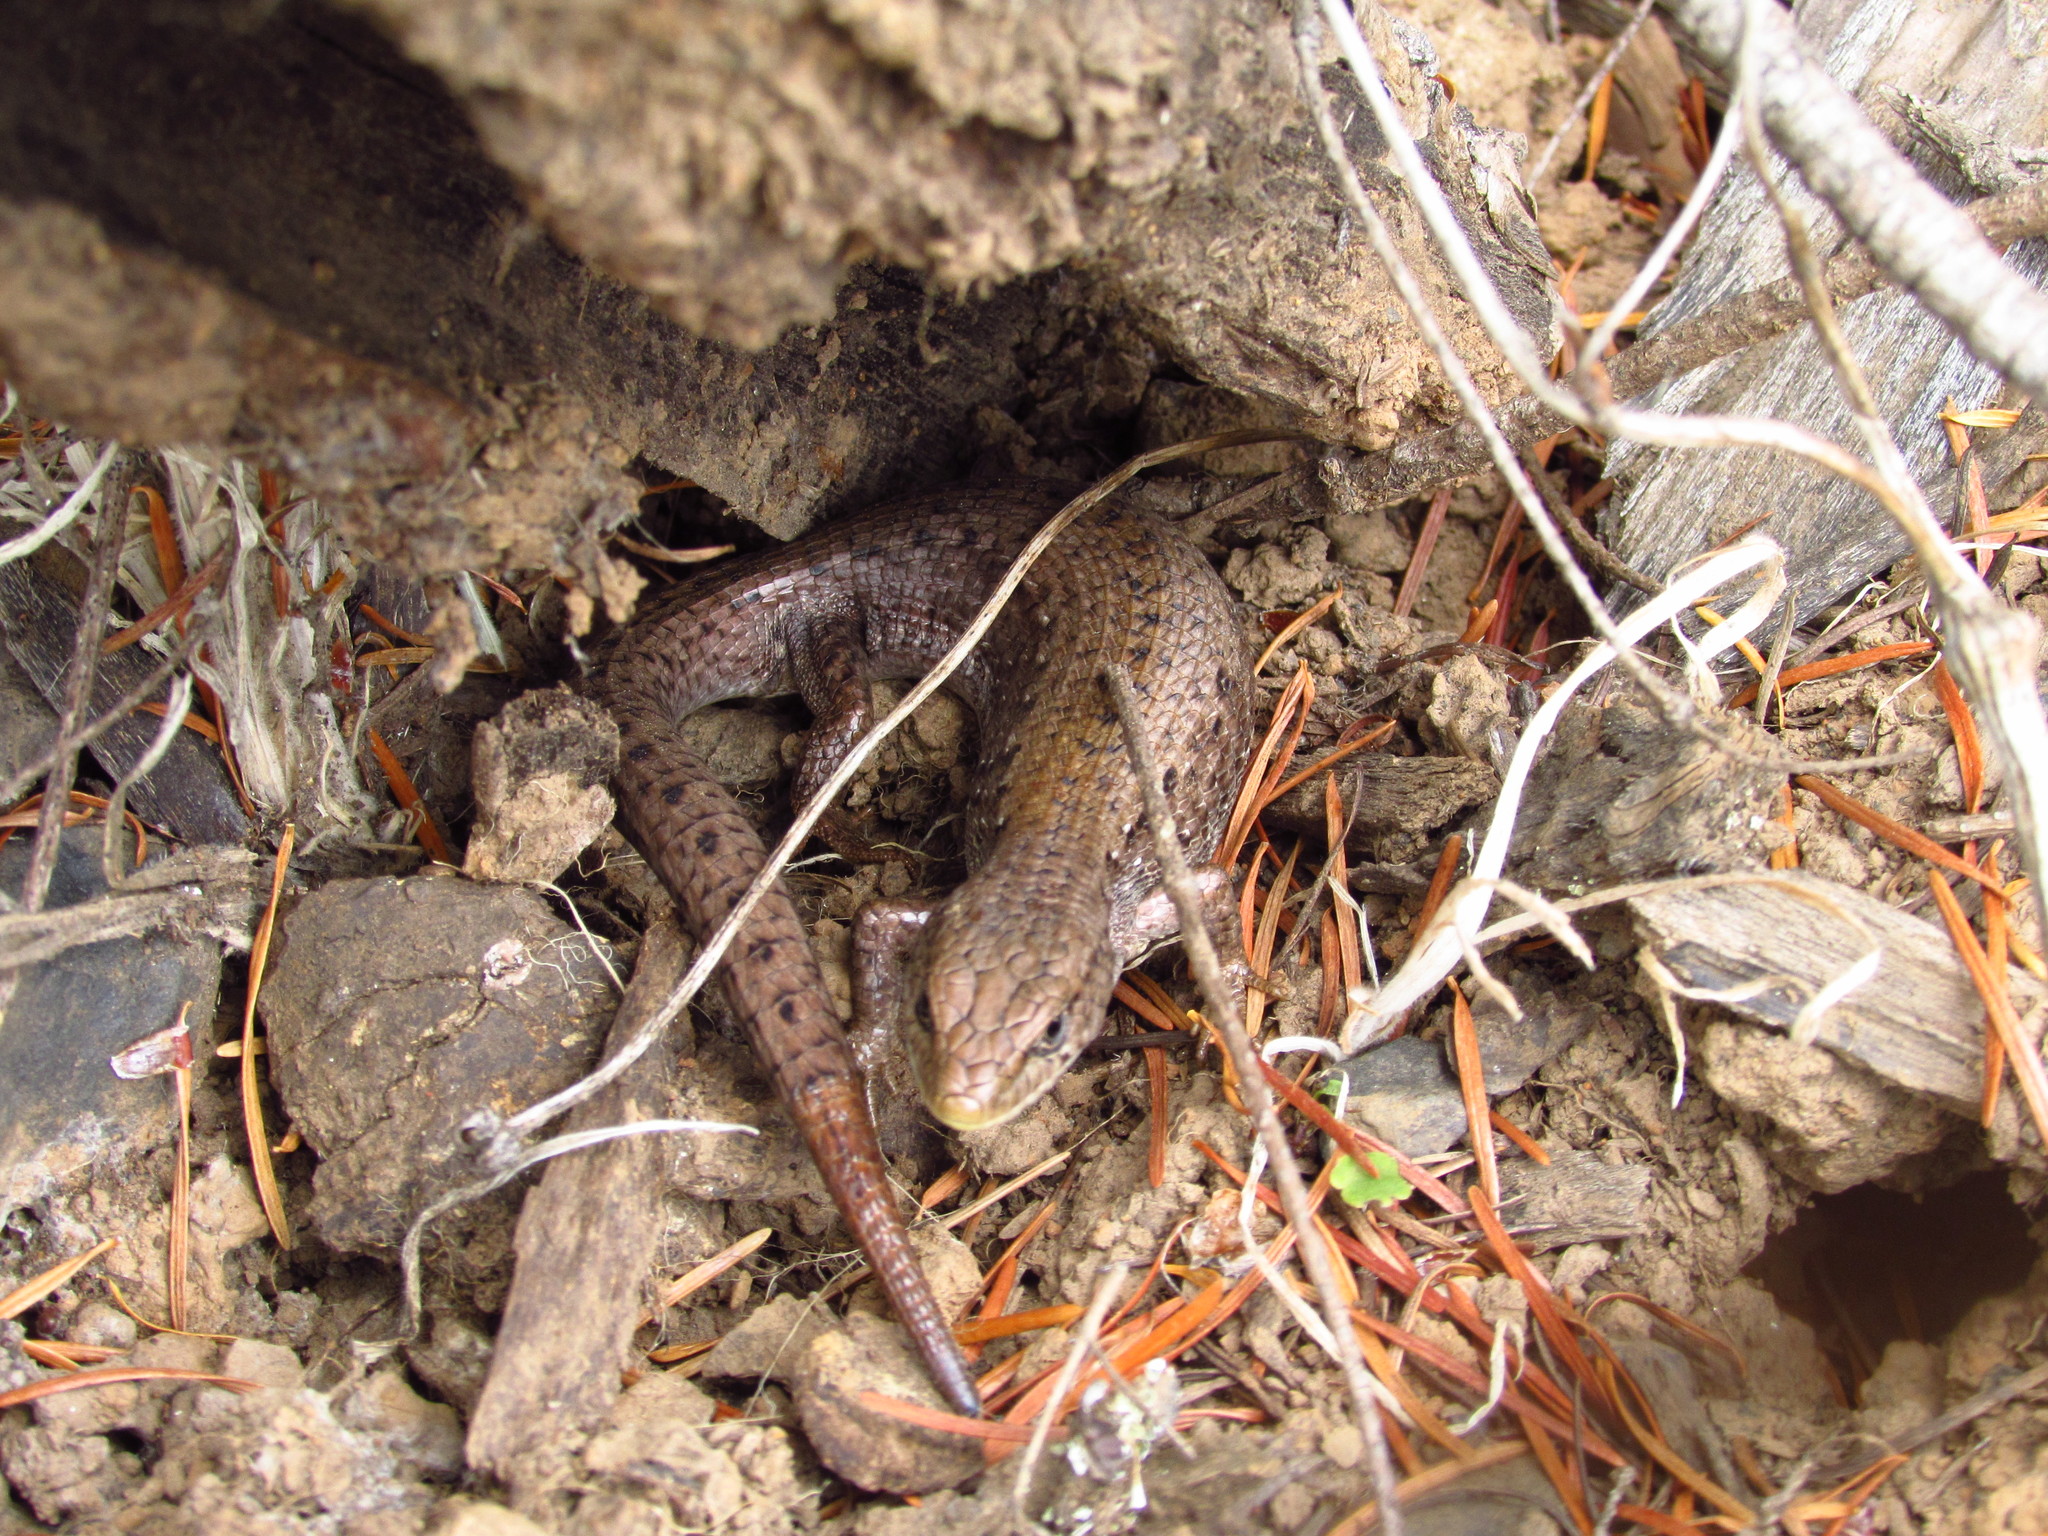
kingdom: Animalia
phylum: Chordata
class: Squamata
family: Anguidae
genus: Elgaria
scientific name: Elgaria coerulea
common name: Northern alligator lizard
